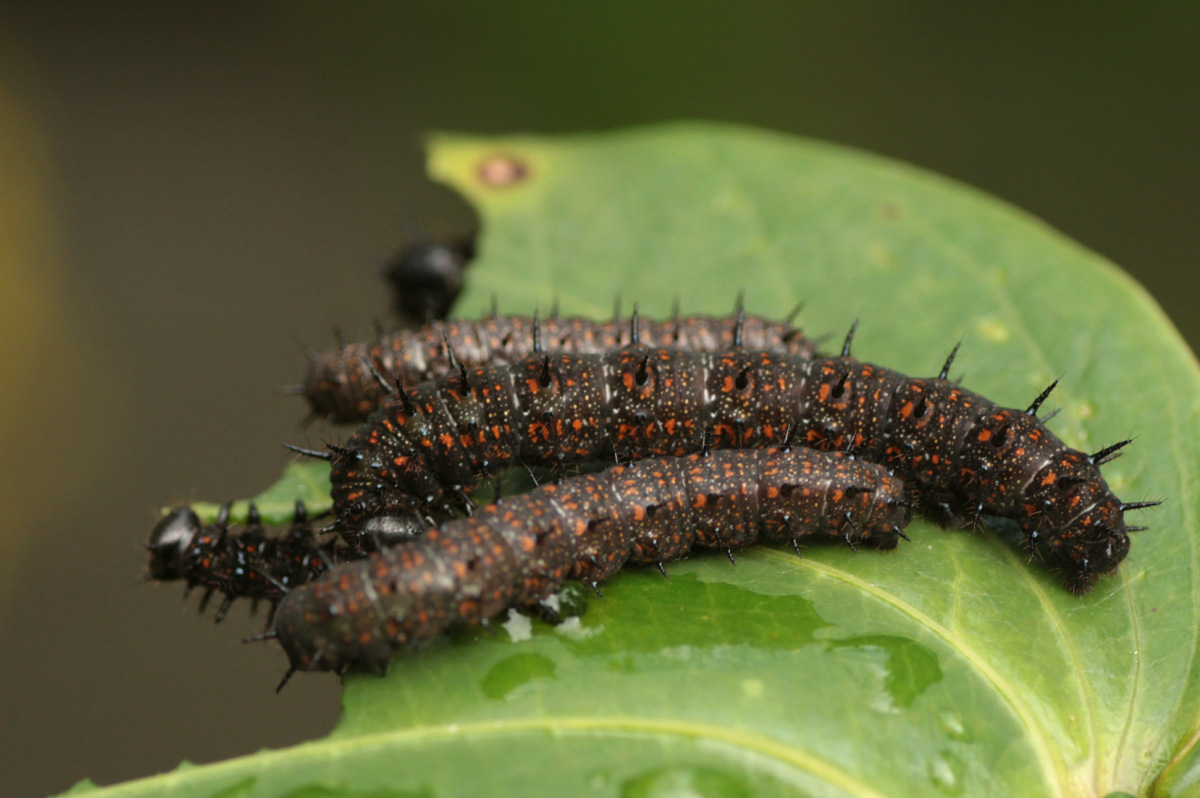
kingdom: Animalia
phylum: Arthropoda
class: Insecta
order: Lepidoptera
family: Nymphalidae
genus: Dione
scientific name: Dione juno
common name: Juno silverspot
